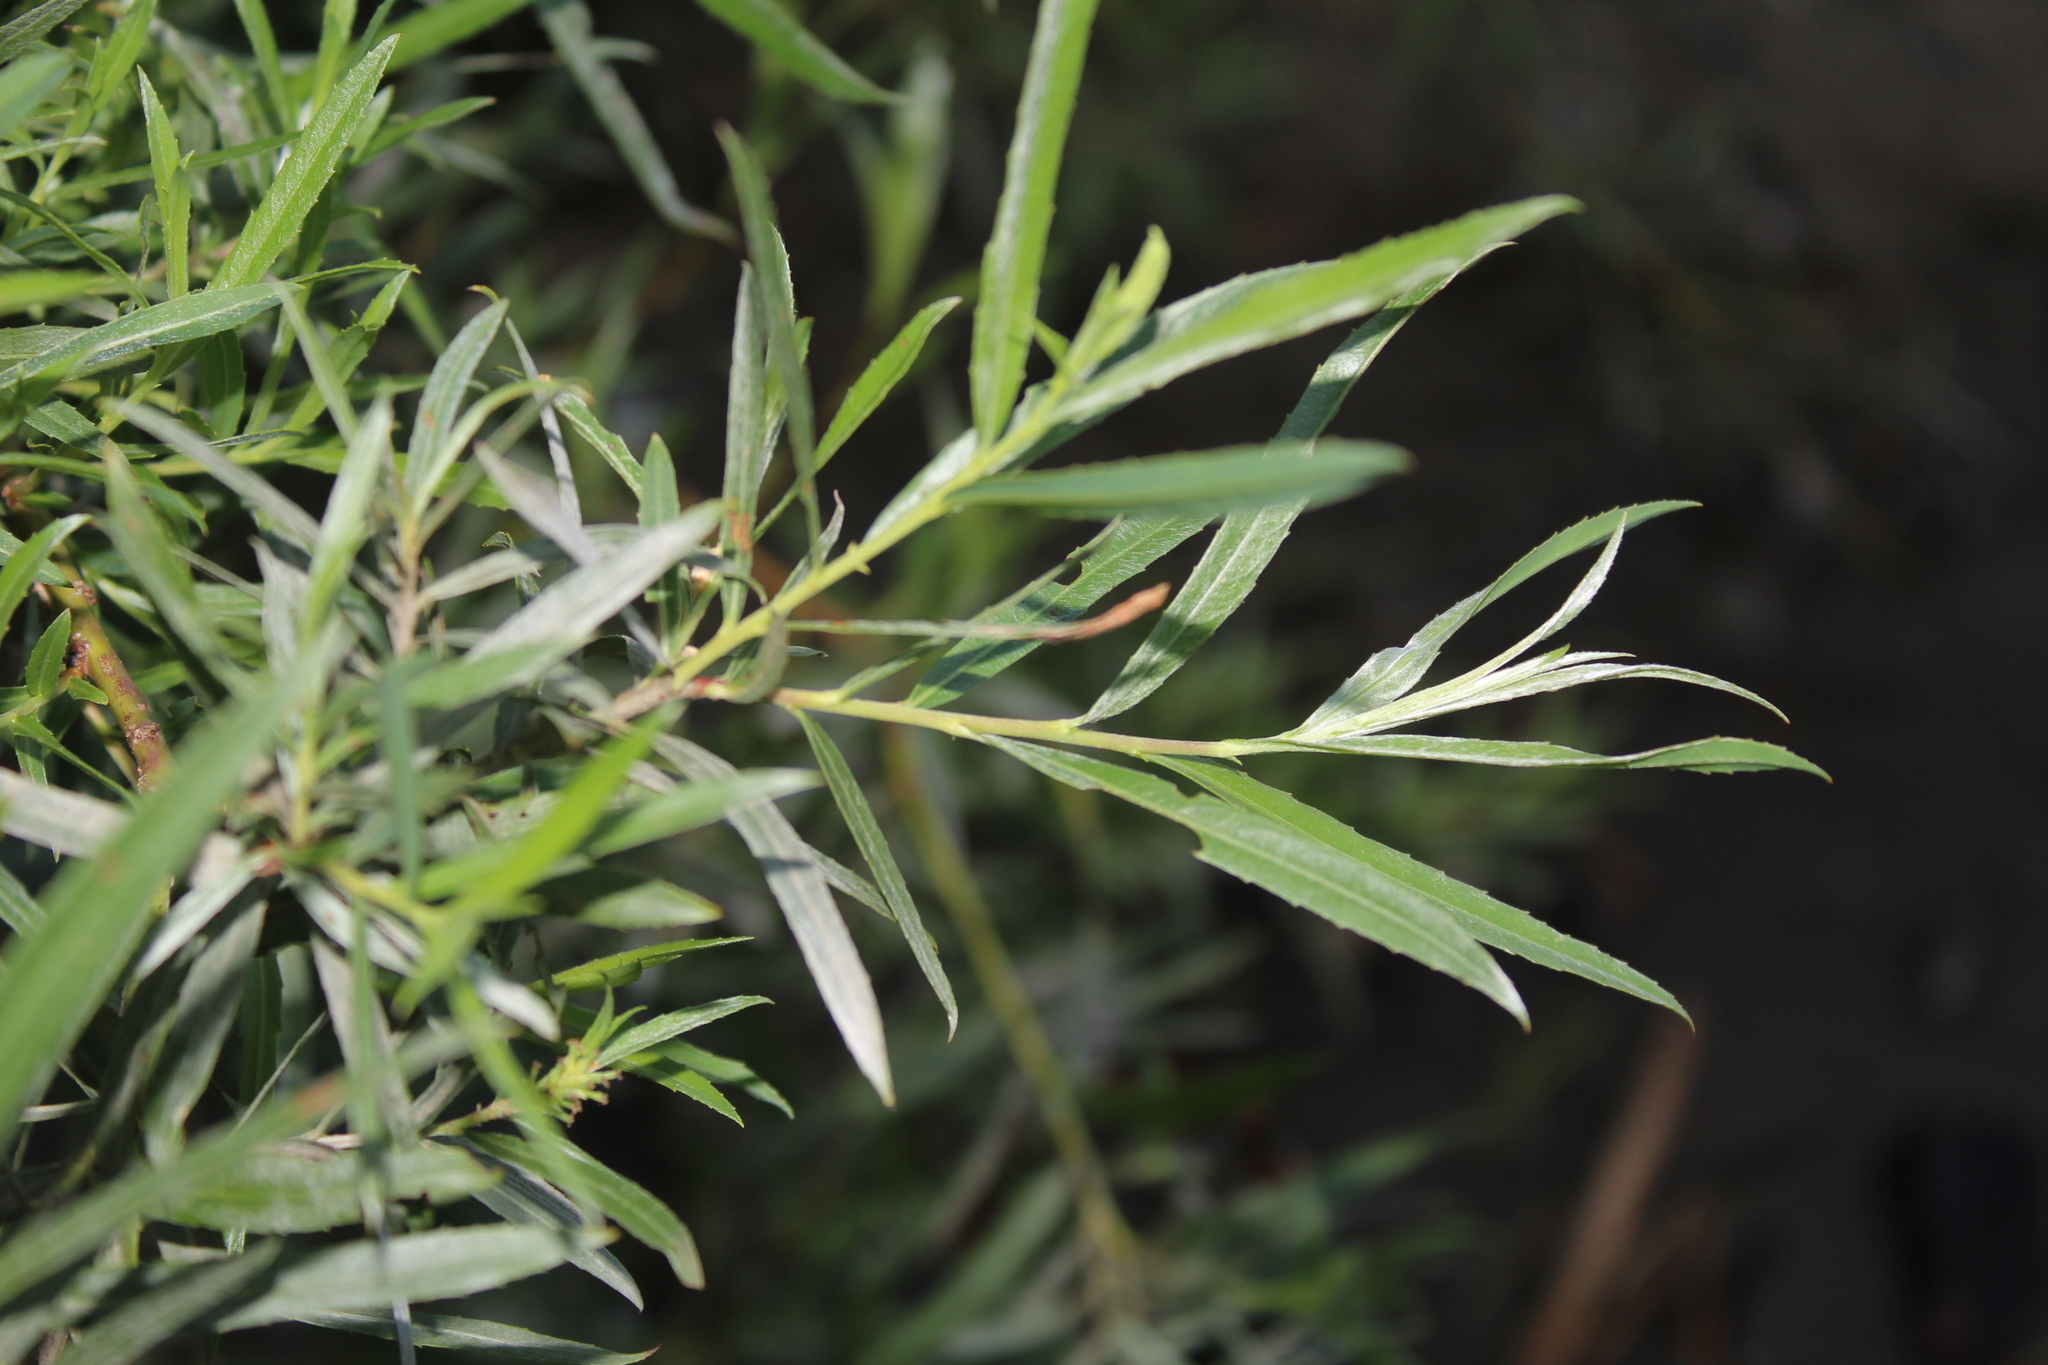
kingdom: Plantae
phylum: Tracheophyta
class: Magnoliopsida
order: Malpighiales
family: Salicaceae
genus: Salix
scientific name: Salix interior
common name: Sandbar willow
